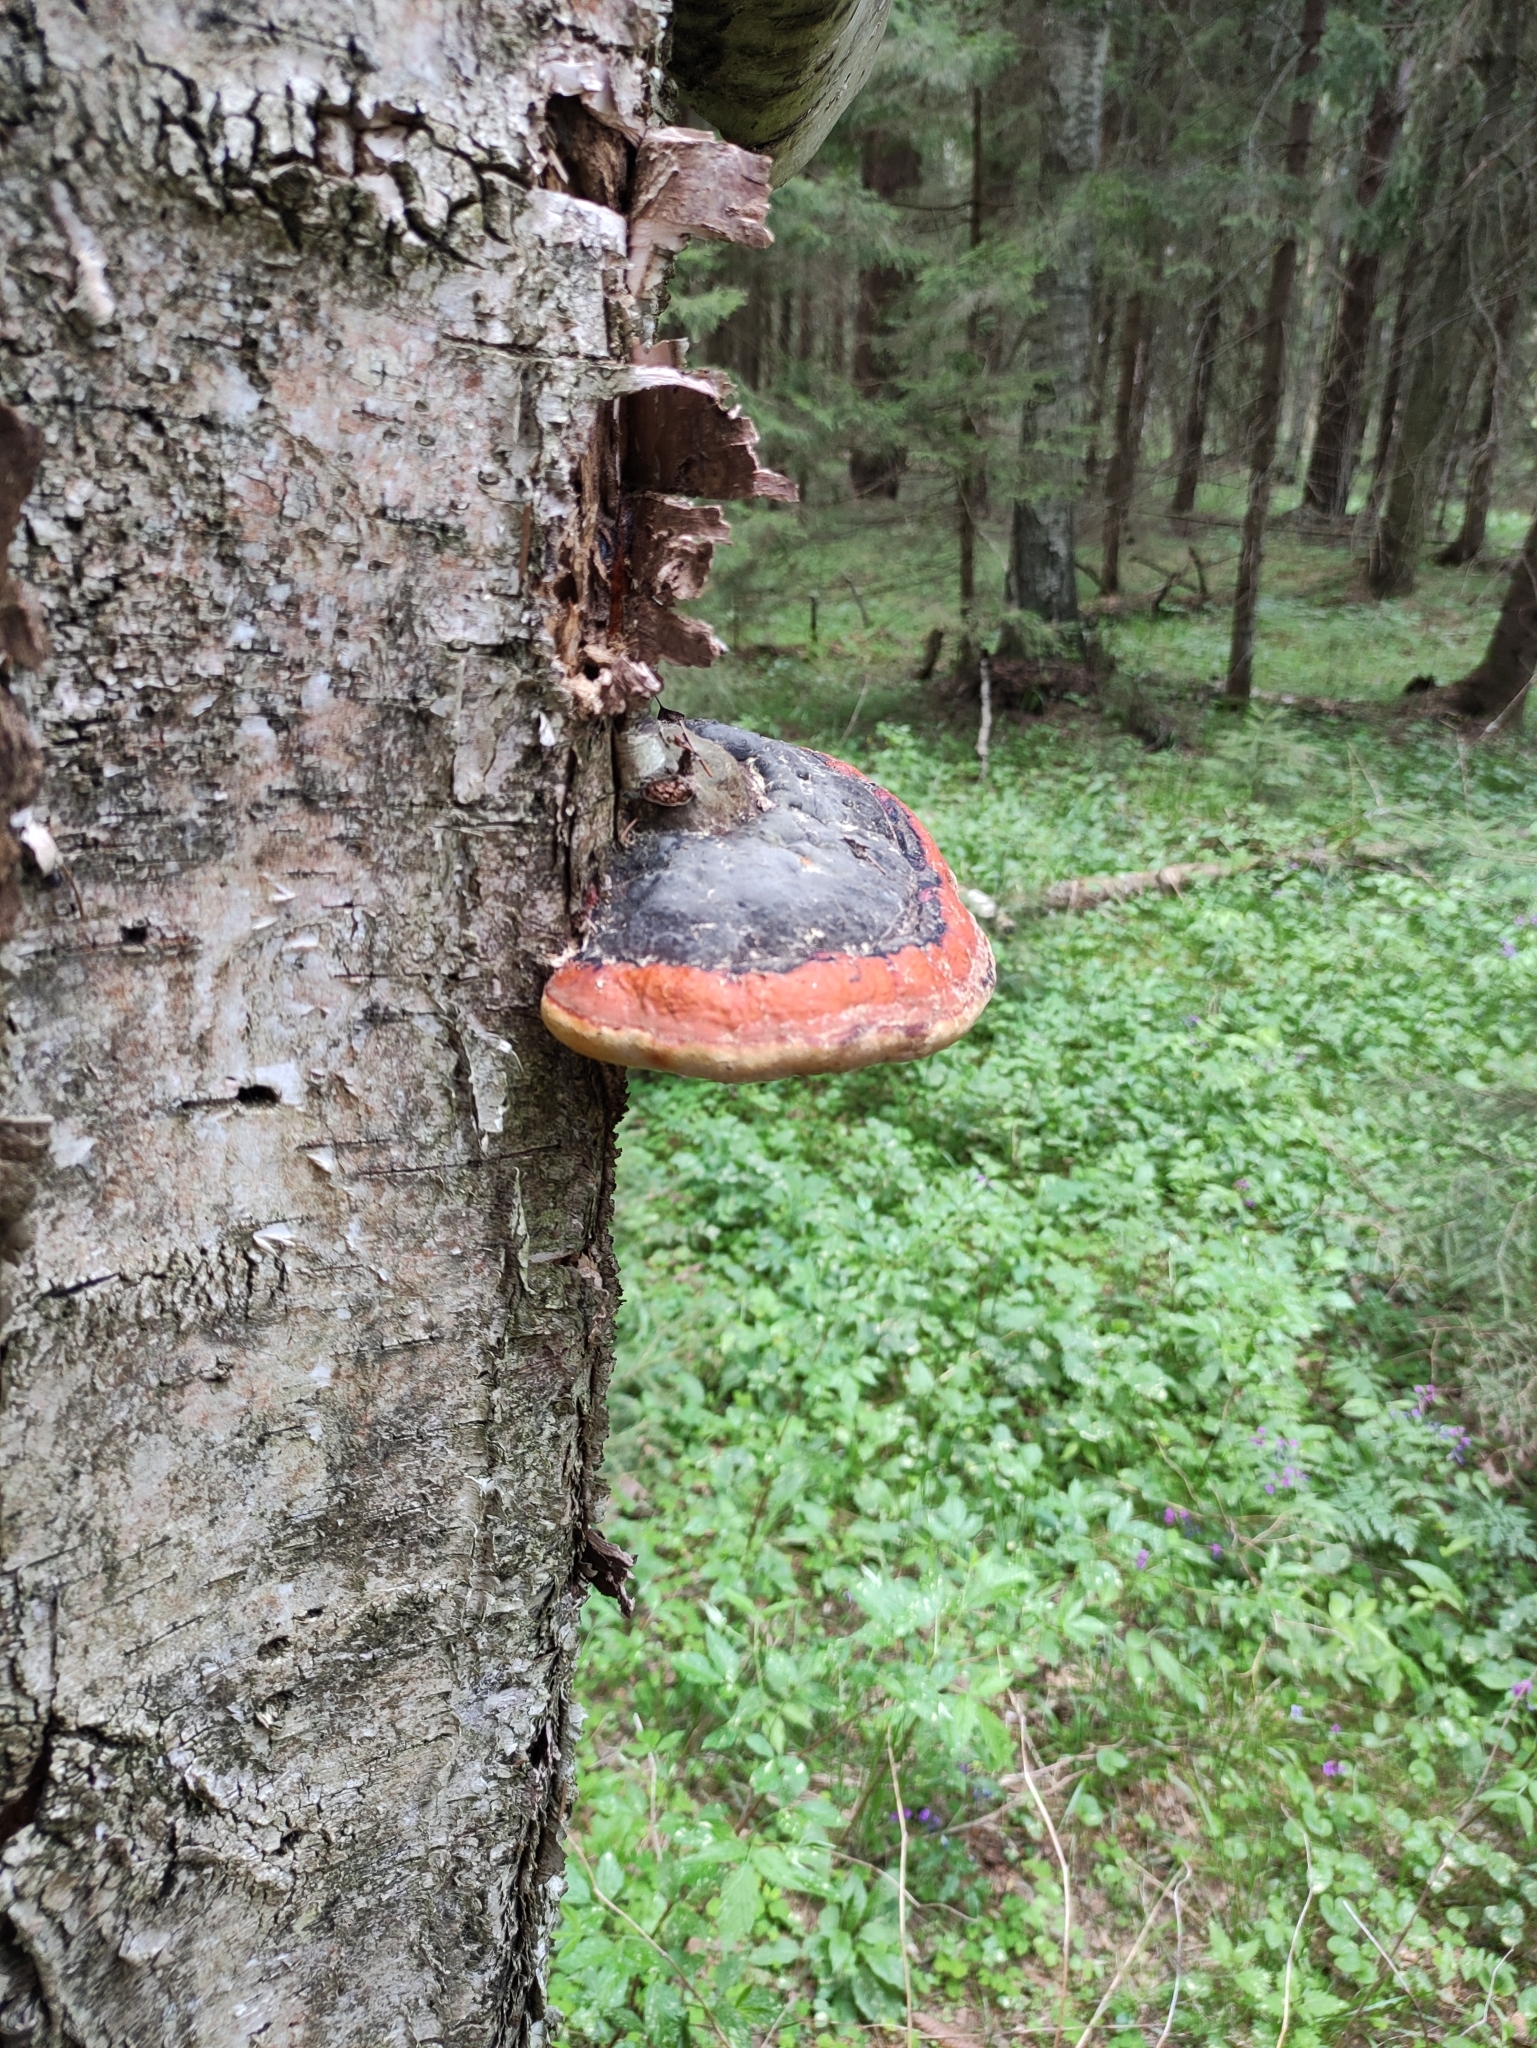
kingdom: Fungi
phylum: Basidiomycota
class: Agaricomycetes
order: Polyporales
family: Fomitopsidaceae
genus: Fomitopsis
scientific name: Fomitopsis pinicola
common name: Red-belted bracket
